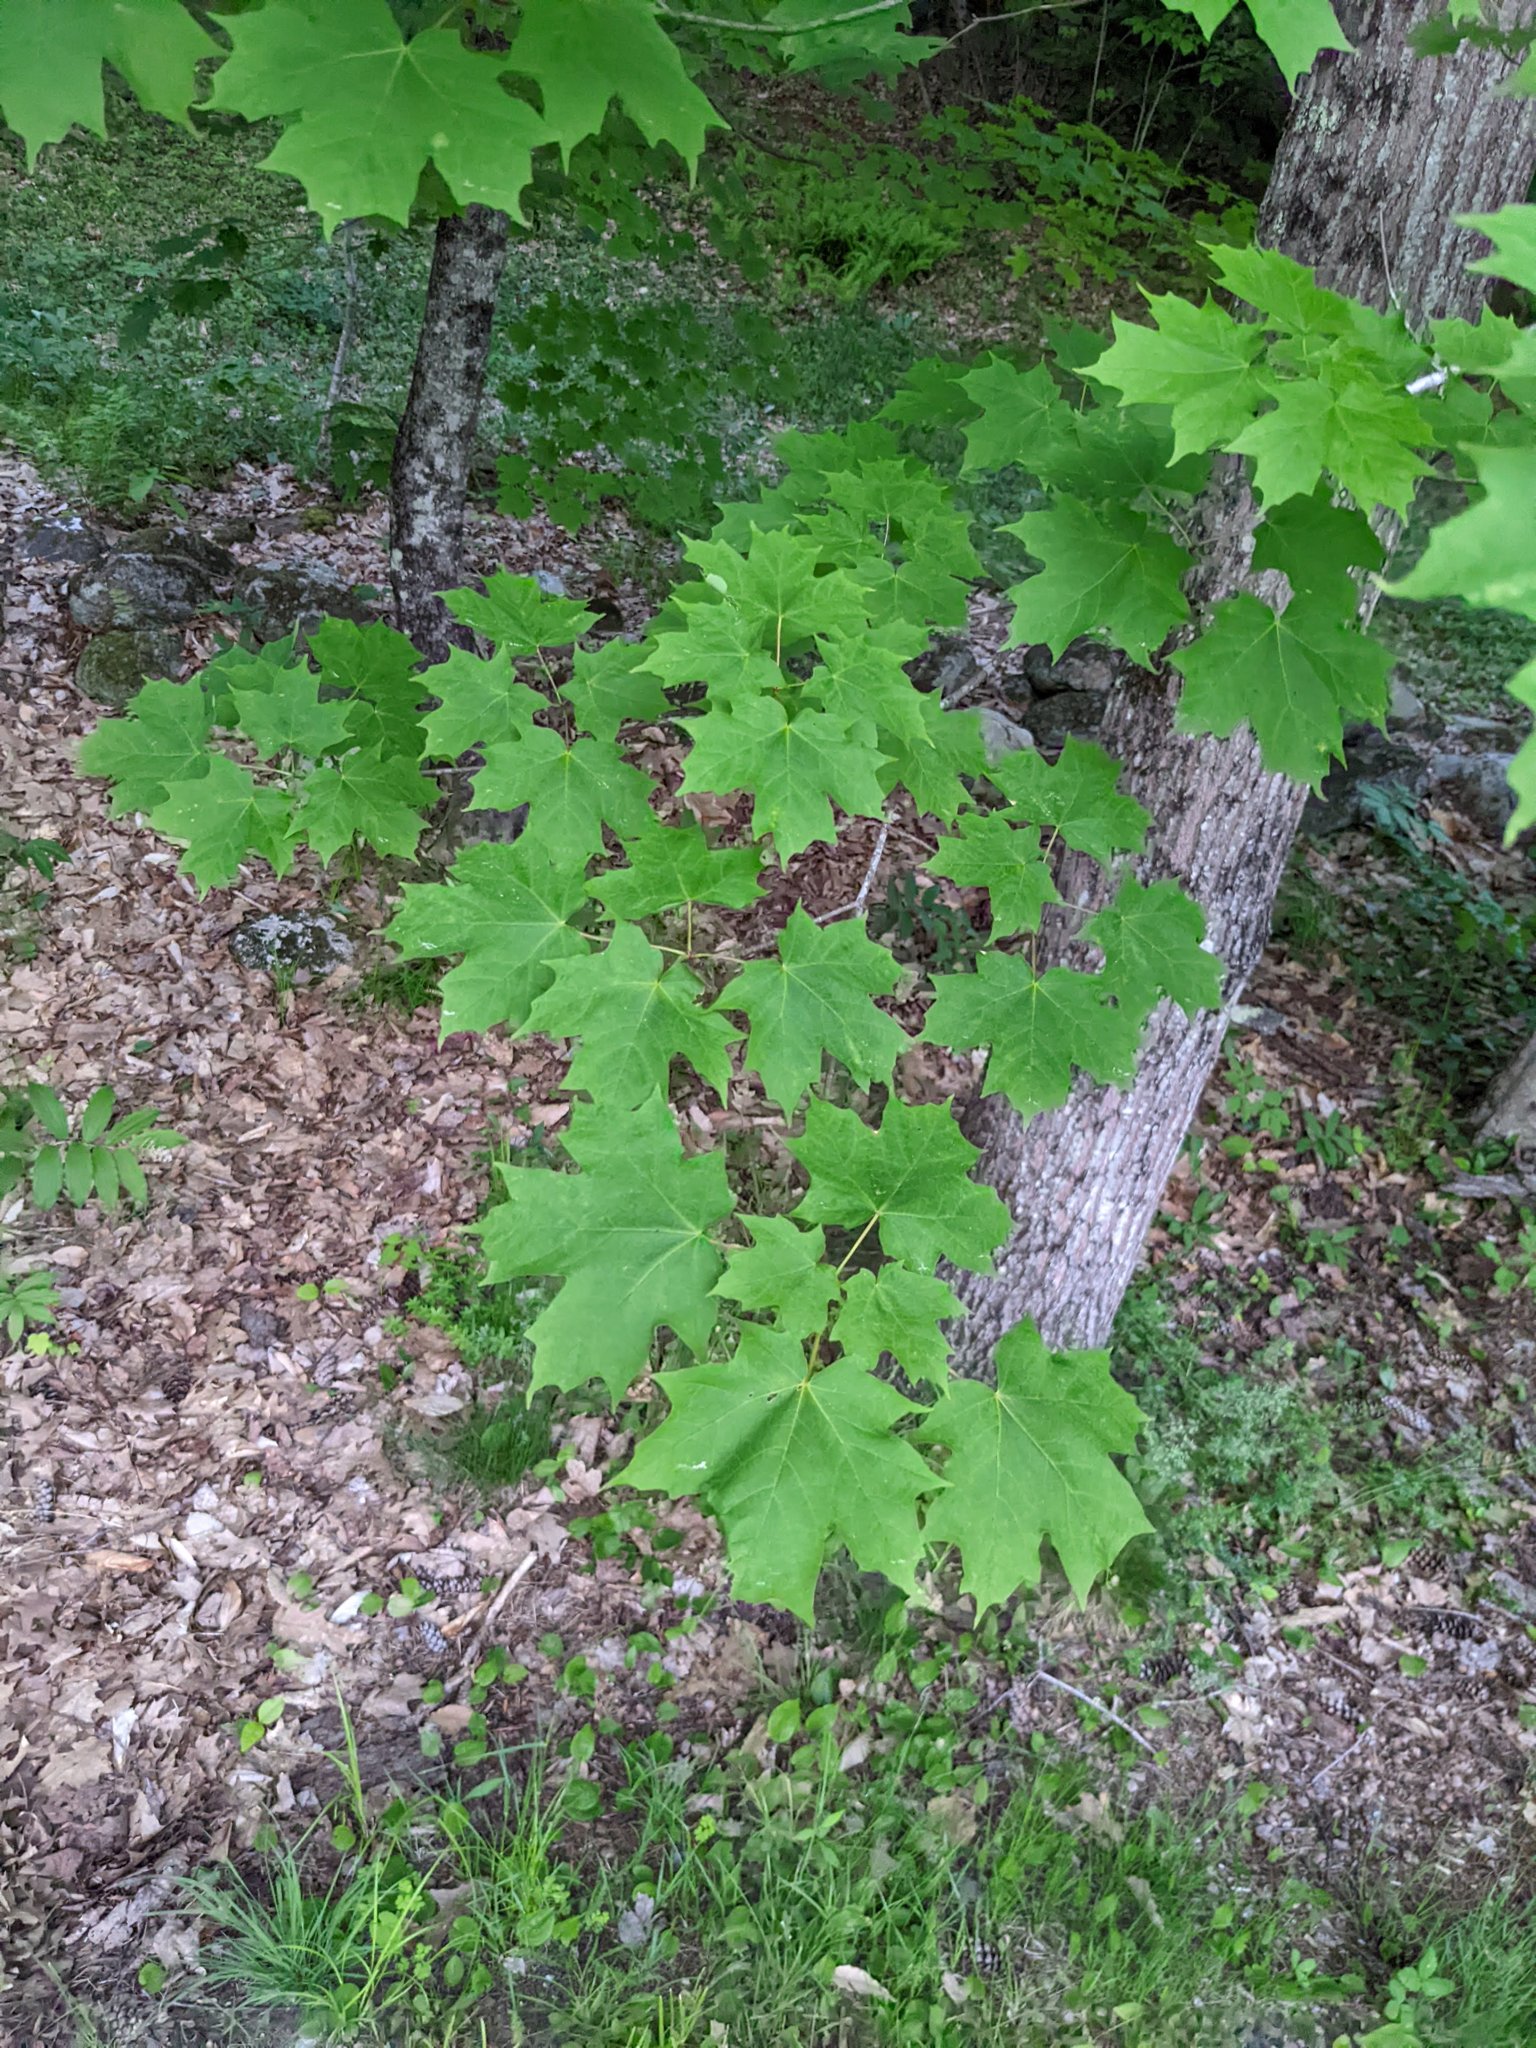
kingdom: Plantae
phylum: Tracheophyta
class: Magnoliopsida
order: Sapindales
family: Sapindaceae
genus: Acer
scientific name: Acer saccharum
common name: Sugar maple
